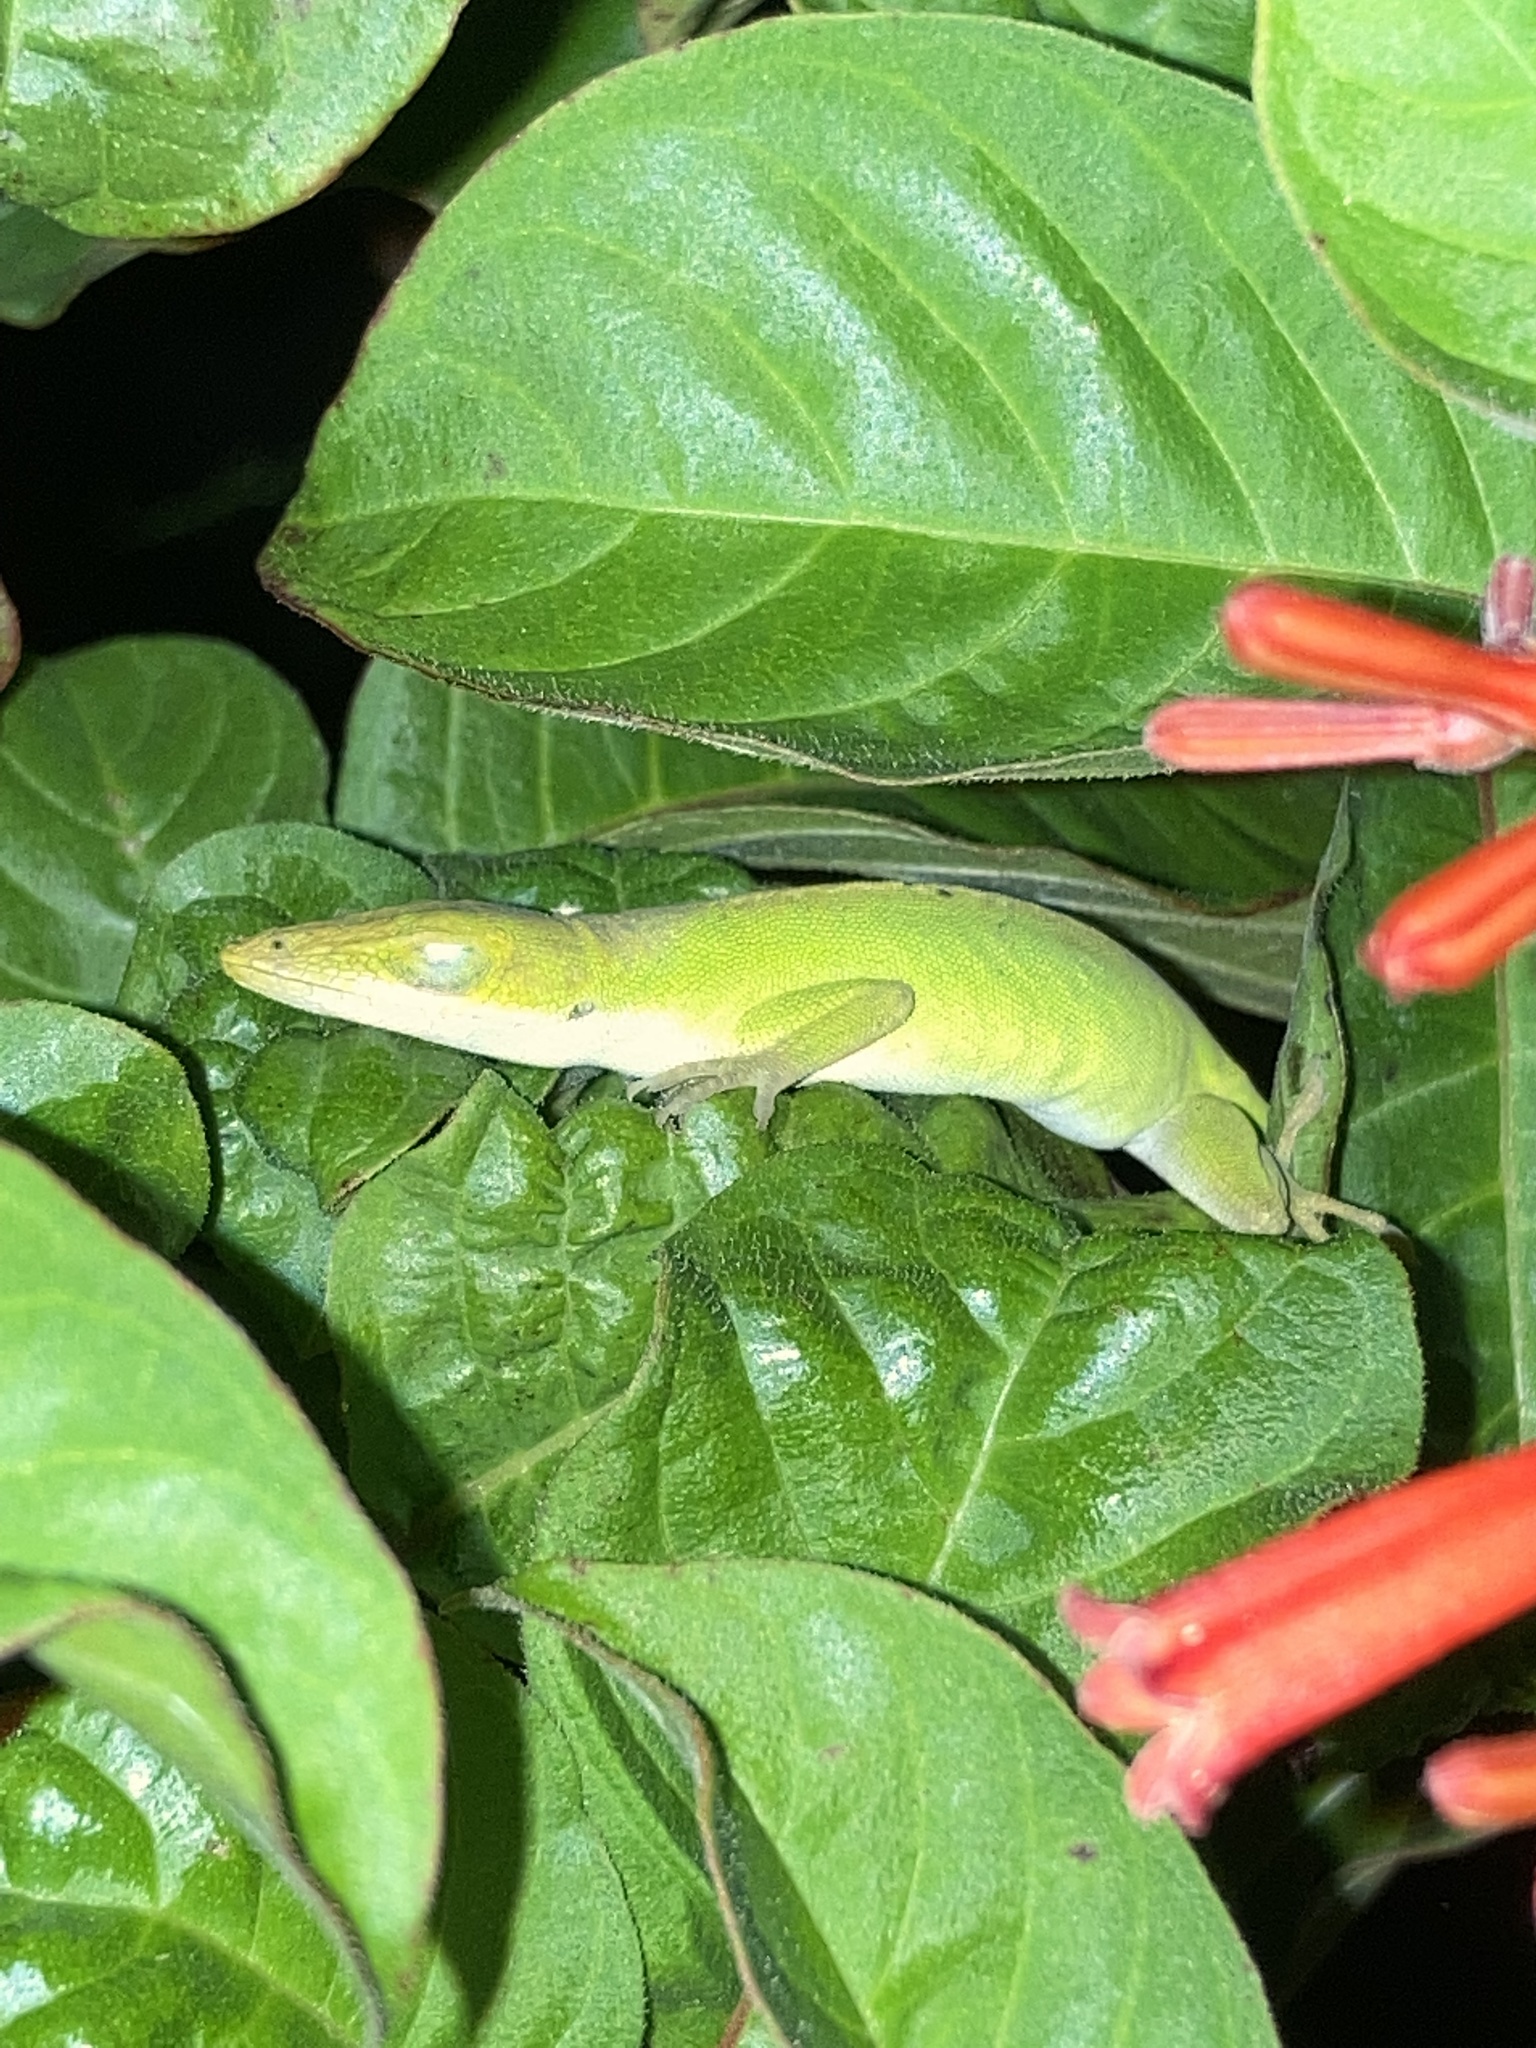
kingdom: Animalia
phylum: Chordata
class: Squamata
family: Dactyloidae
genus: Anolis
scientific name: Anolis carolinensis
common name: Green anole
